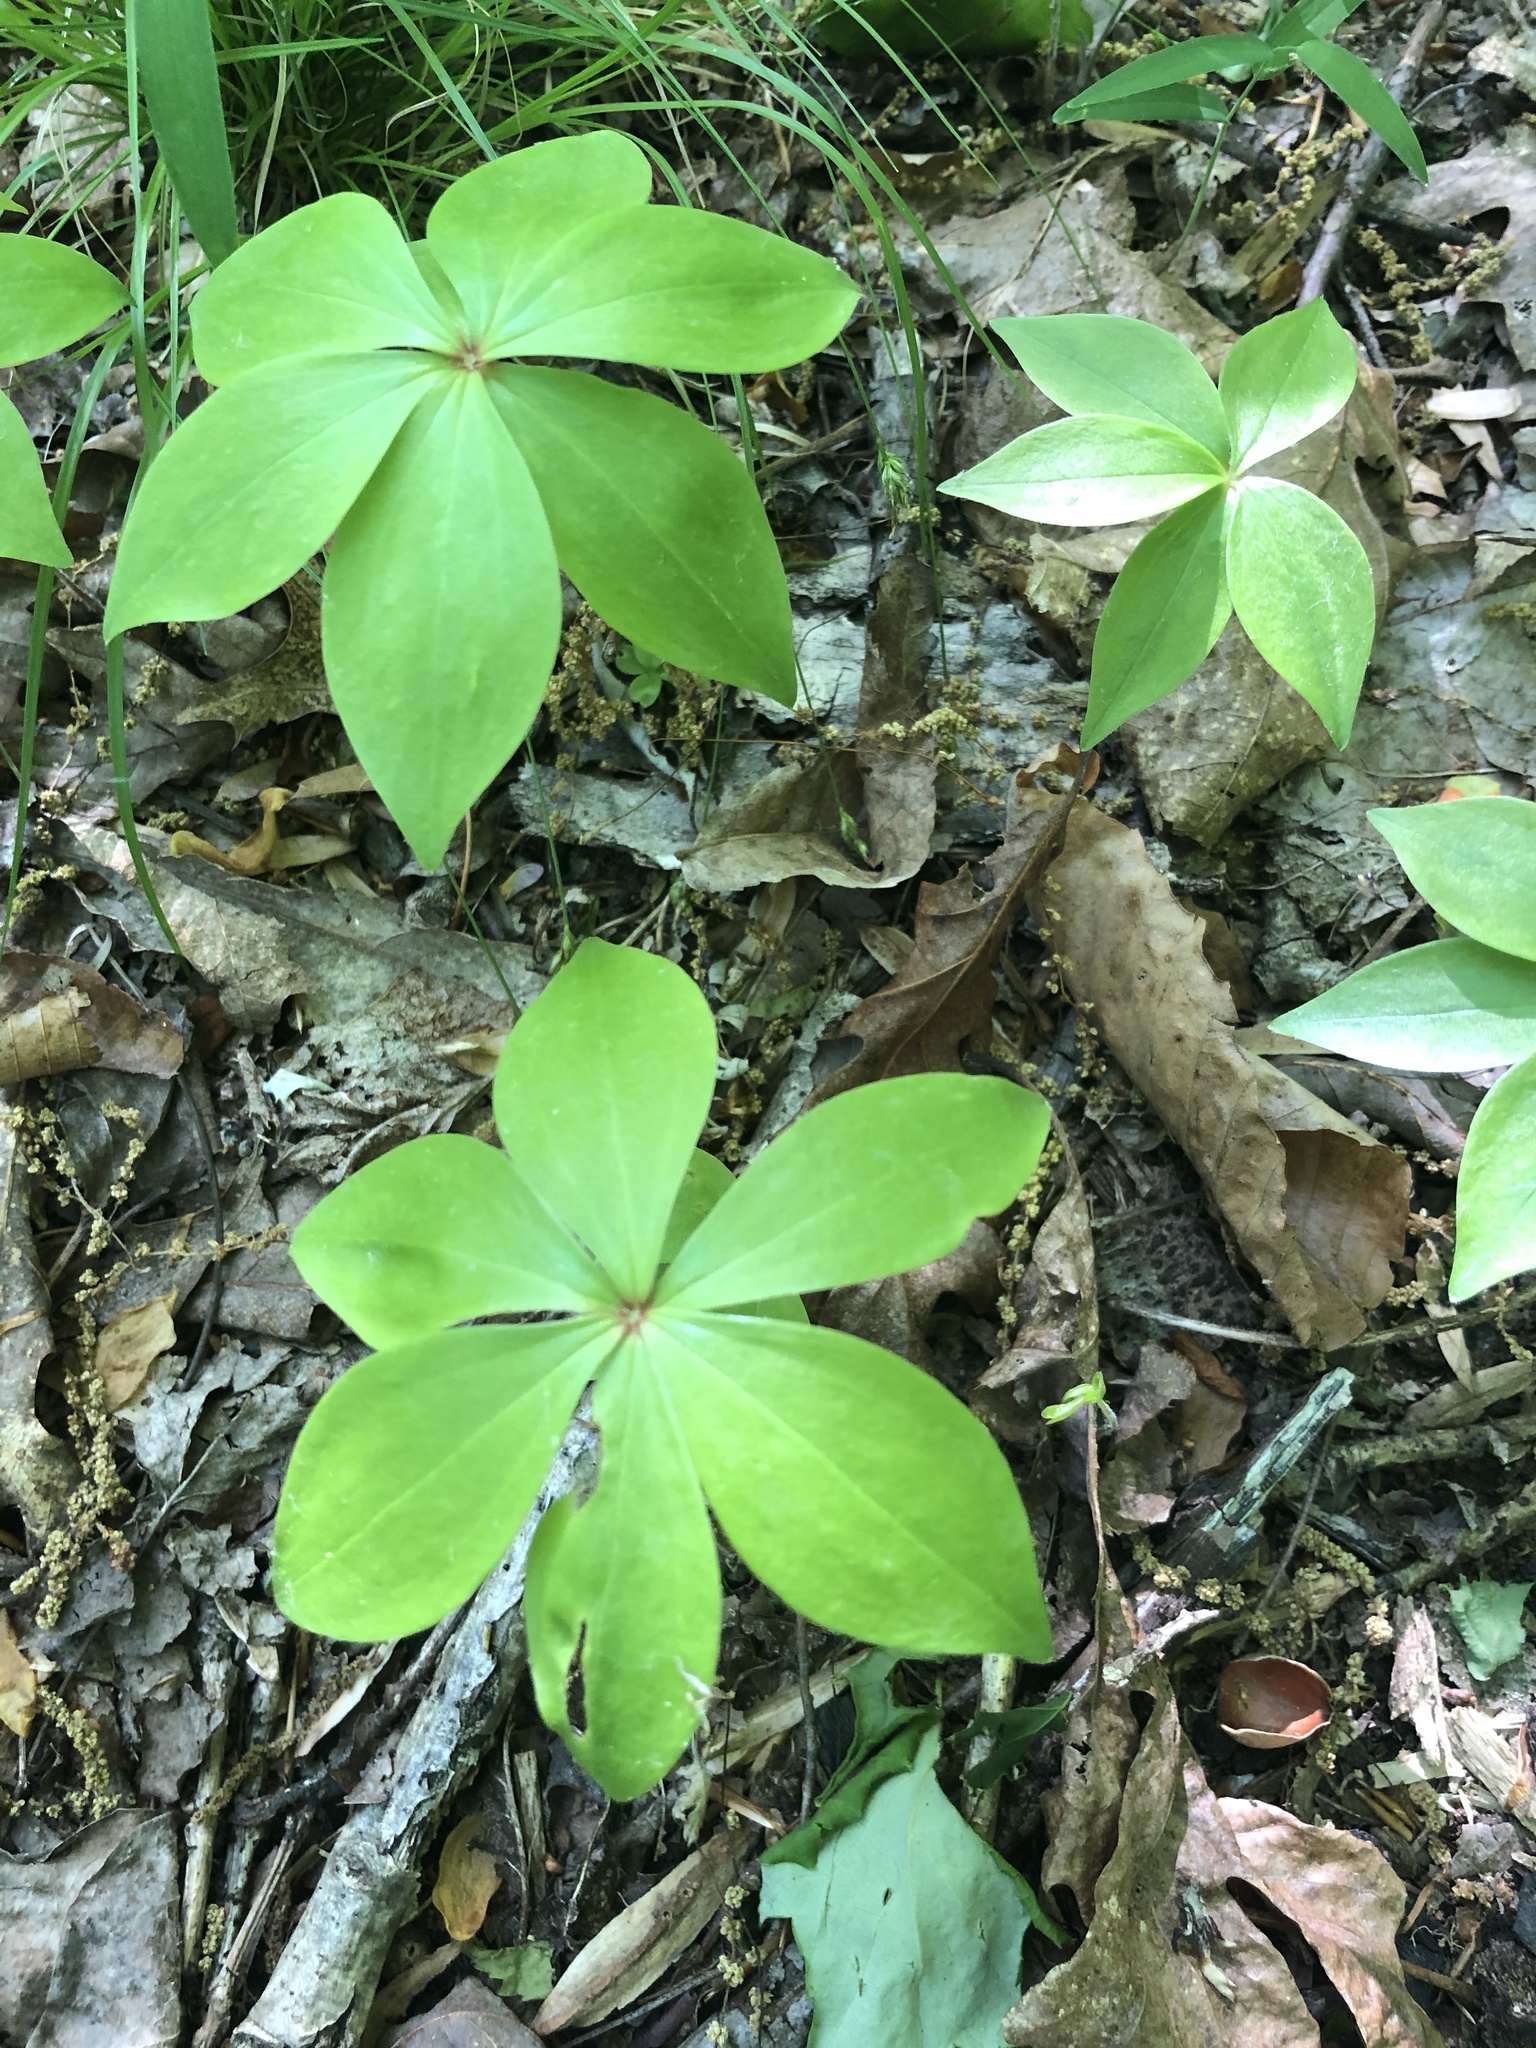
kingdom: Plantae
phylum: Tracheophyta
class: Liliopsida
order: Liliales
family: Liliaceae
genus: Medeola
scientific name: Medeola virginiana
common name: Indian cucumber-root
